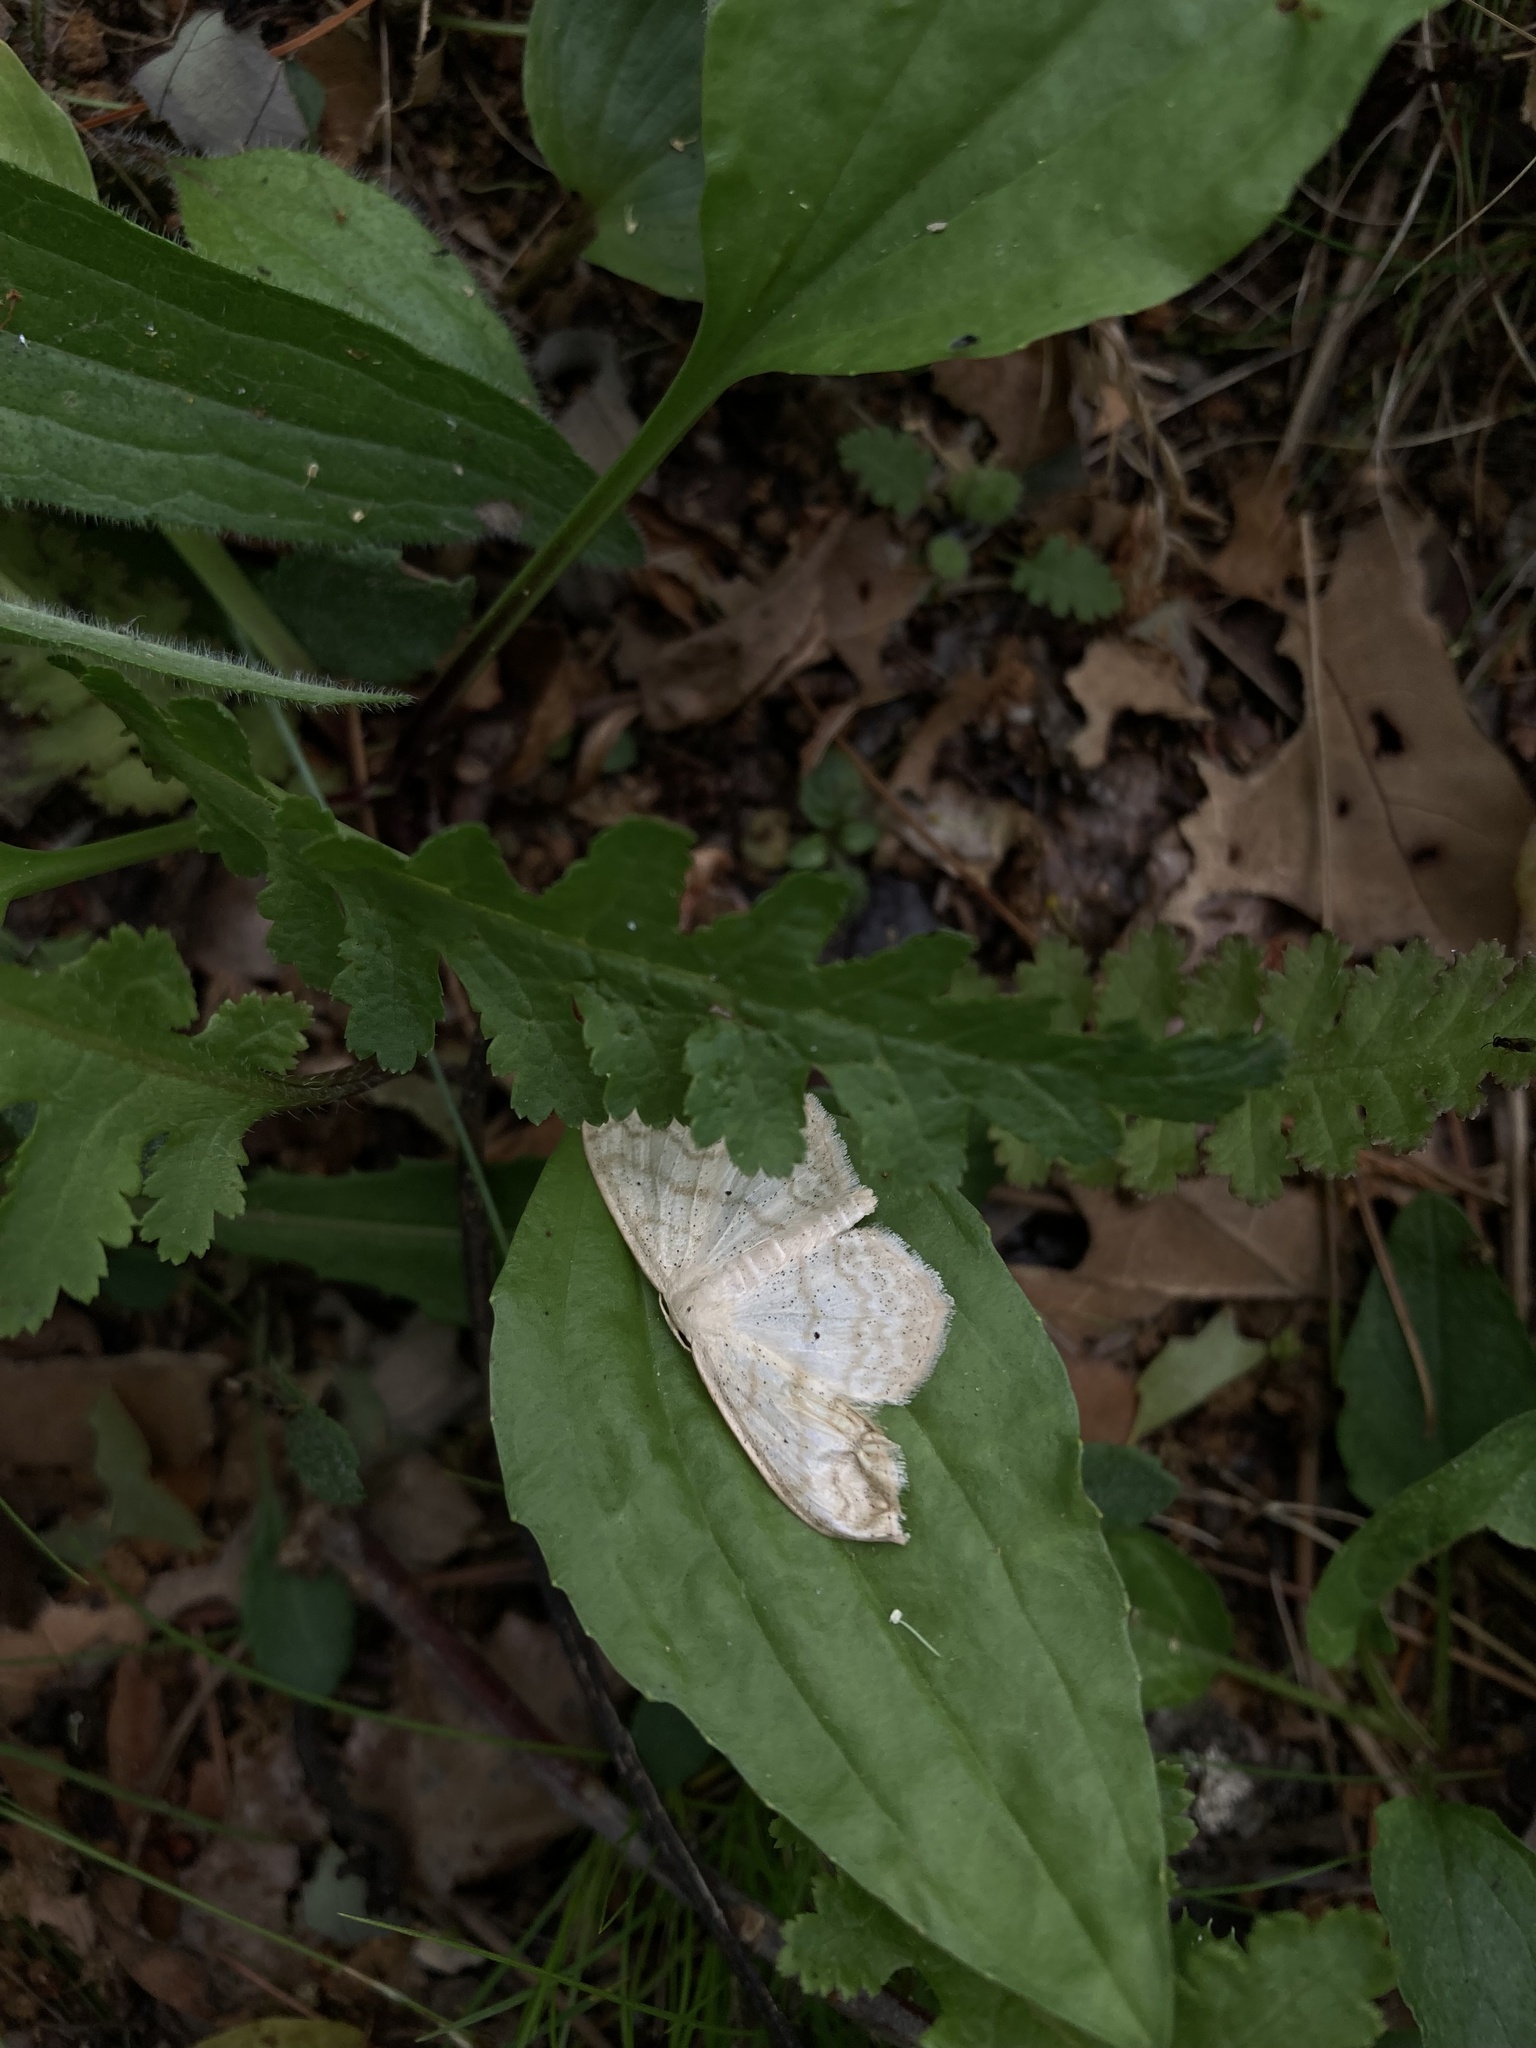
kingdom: Animalia
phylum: Arthropoda
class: Insecta
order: Lepidoptera
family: Geometridae
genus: Scopula
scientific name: Scopula limboundata
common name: Large lace border
